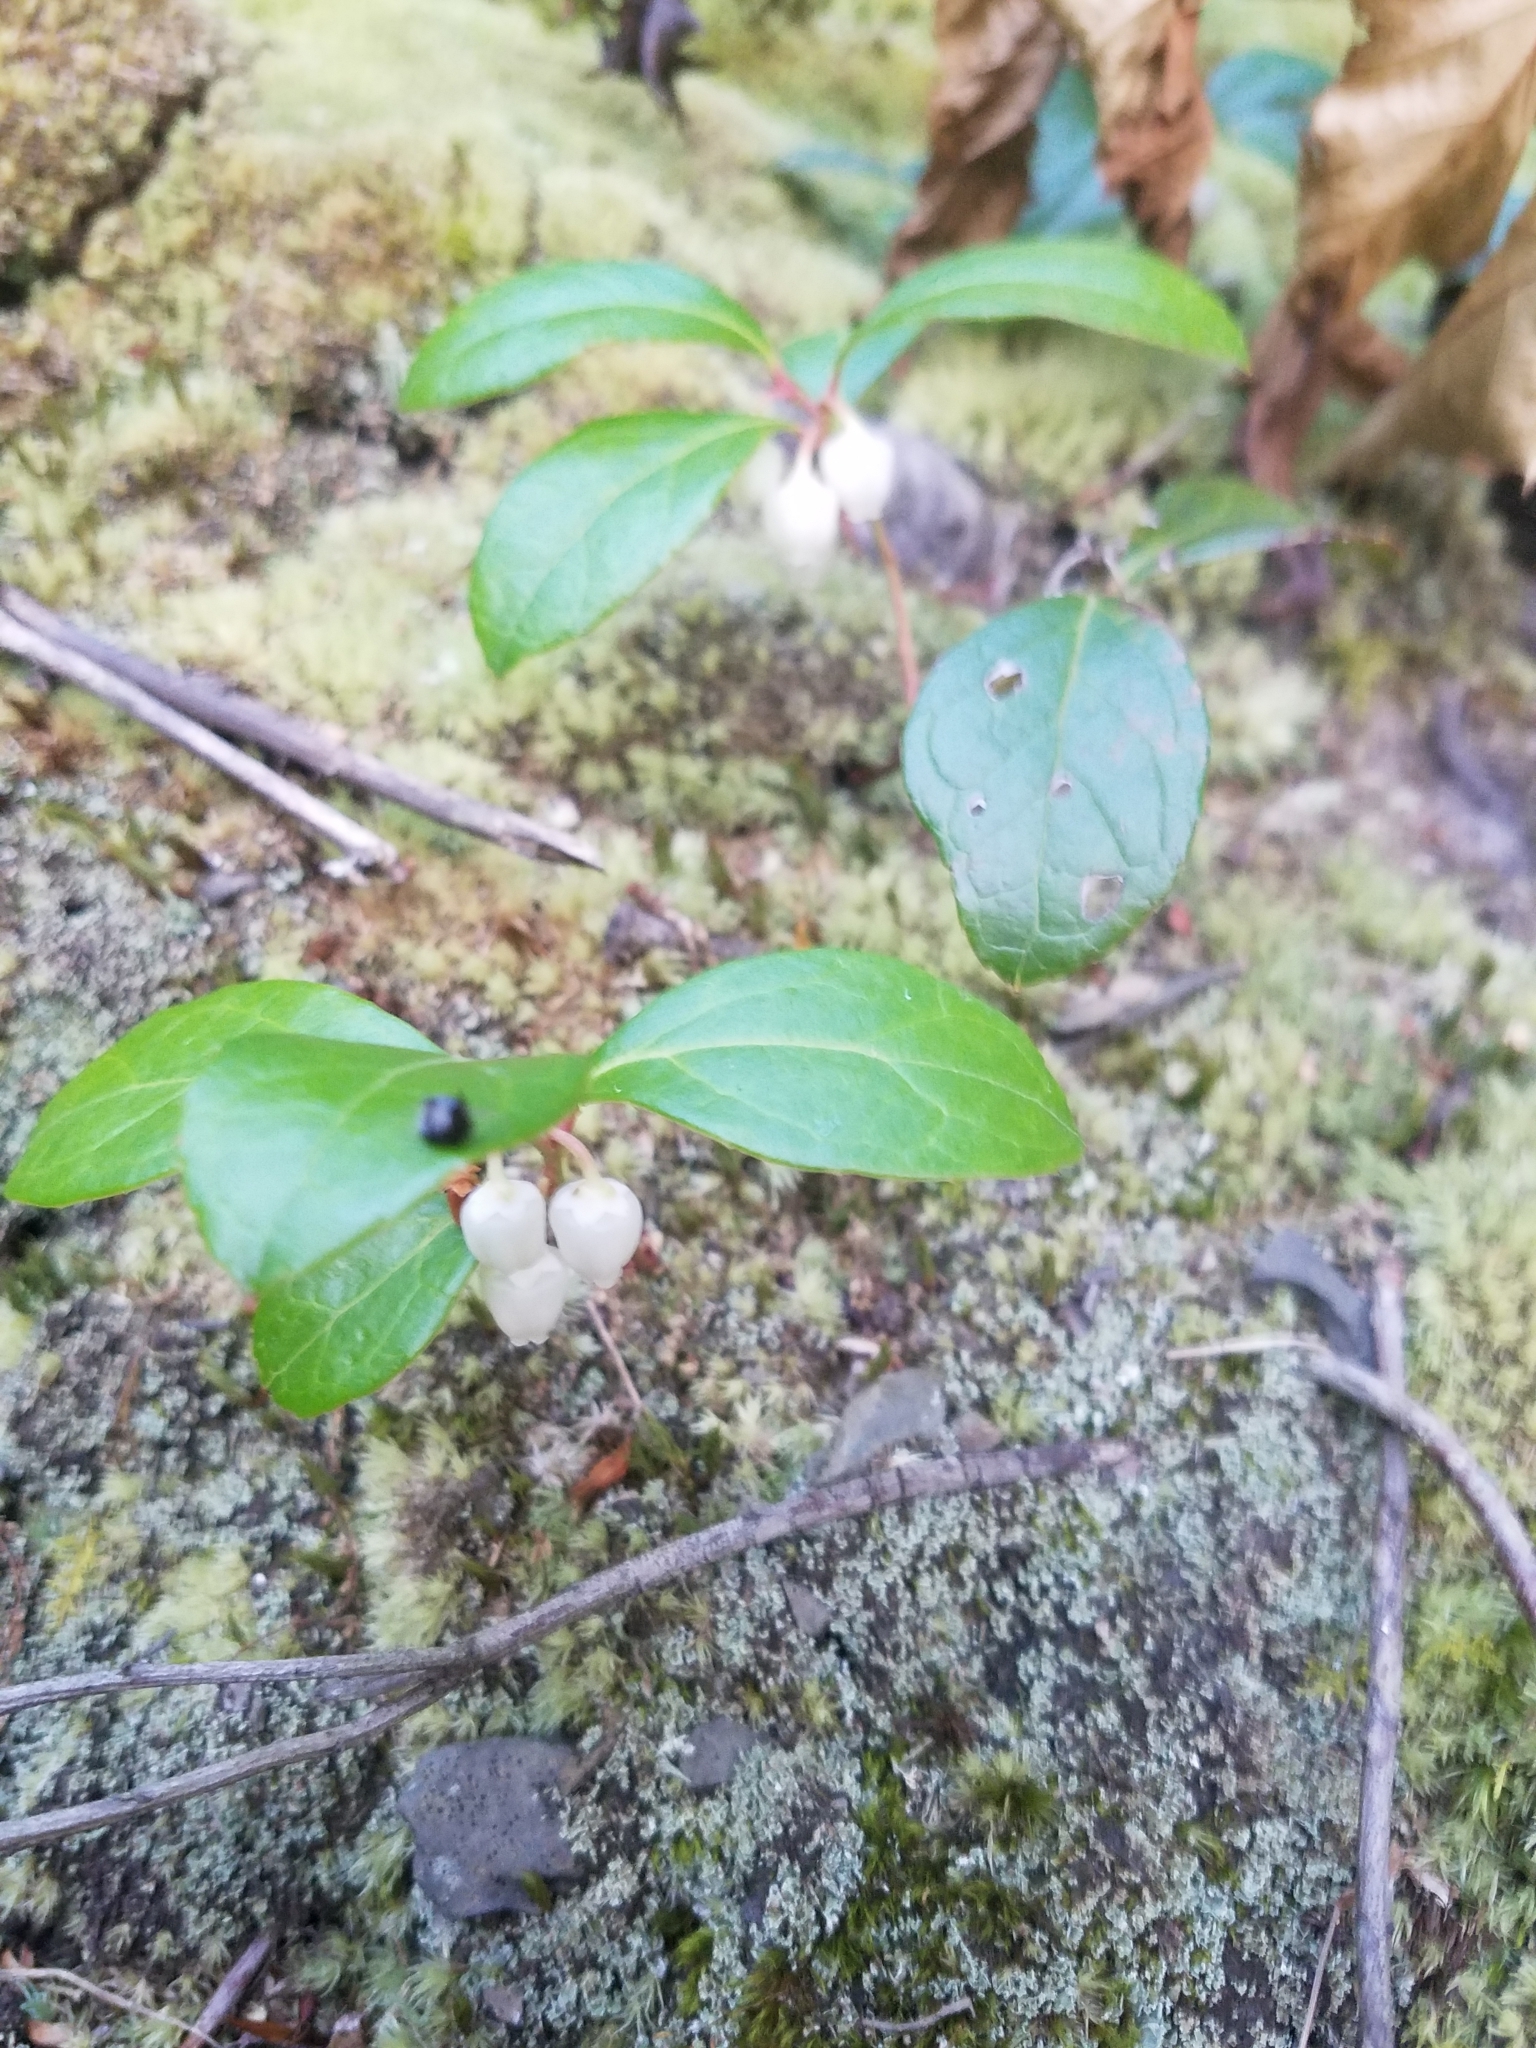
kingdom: Plantae
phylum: Tracheophyta
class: Magnoliopsida
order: Ericales
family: Ericaceae
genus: Gaultheria
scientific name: Gaultheria procumbens
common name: Checkerberry
